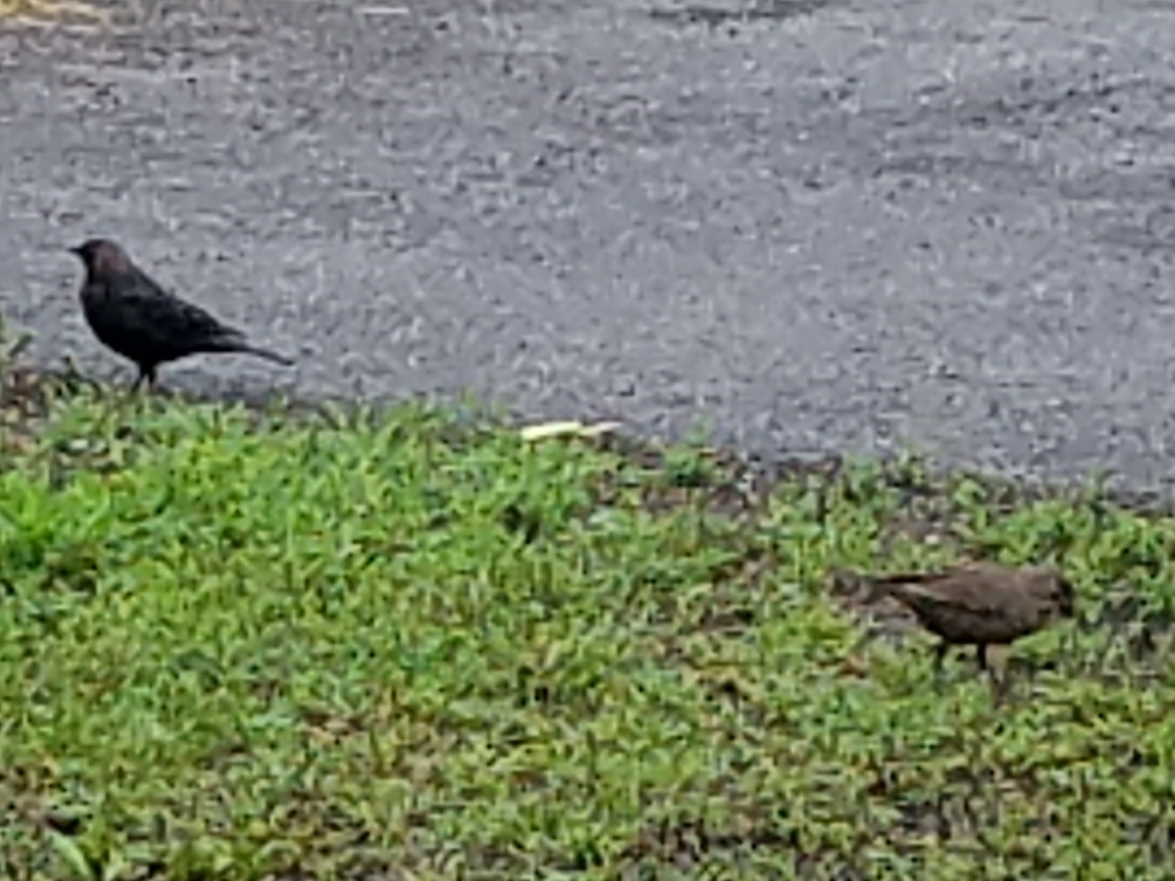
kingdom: Animalia
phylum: Chordata
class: Aves
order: Passeriformes
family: Icteridae
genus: Molothrus
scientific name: Molothrus ater
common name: Brown-headed cowbird
